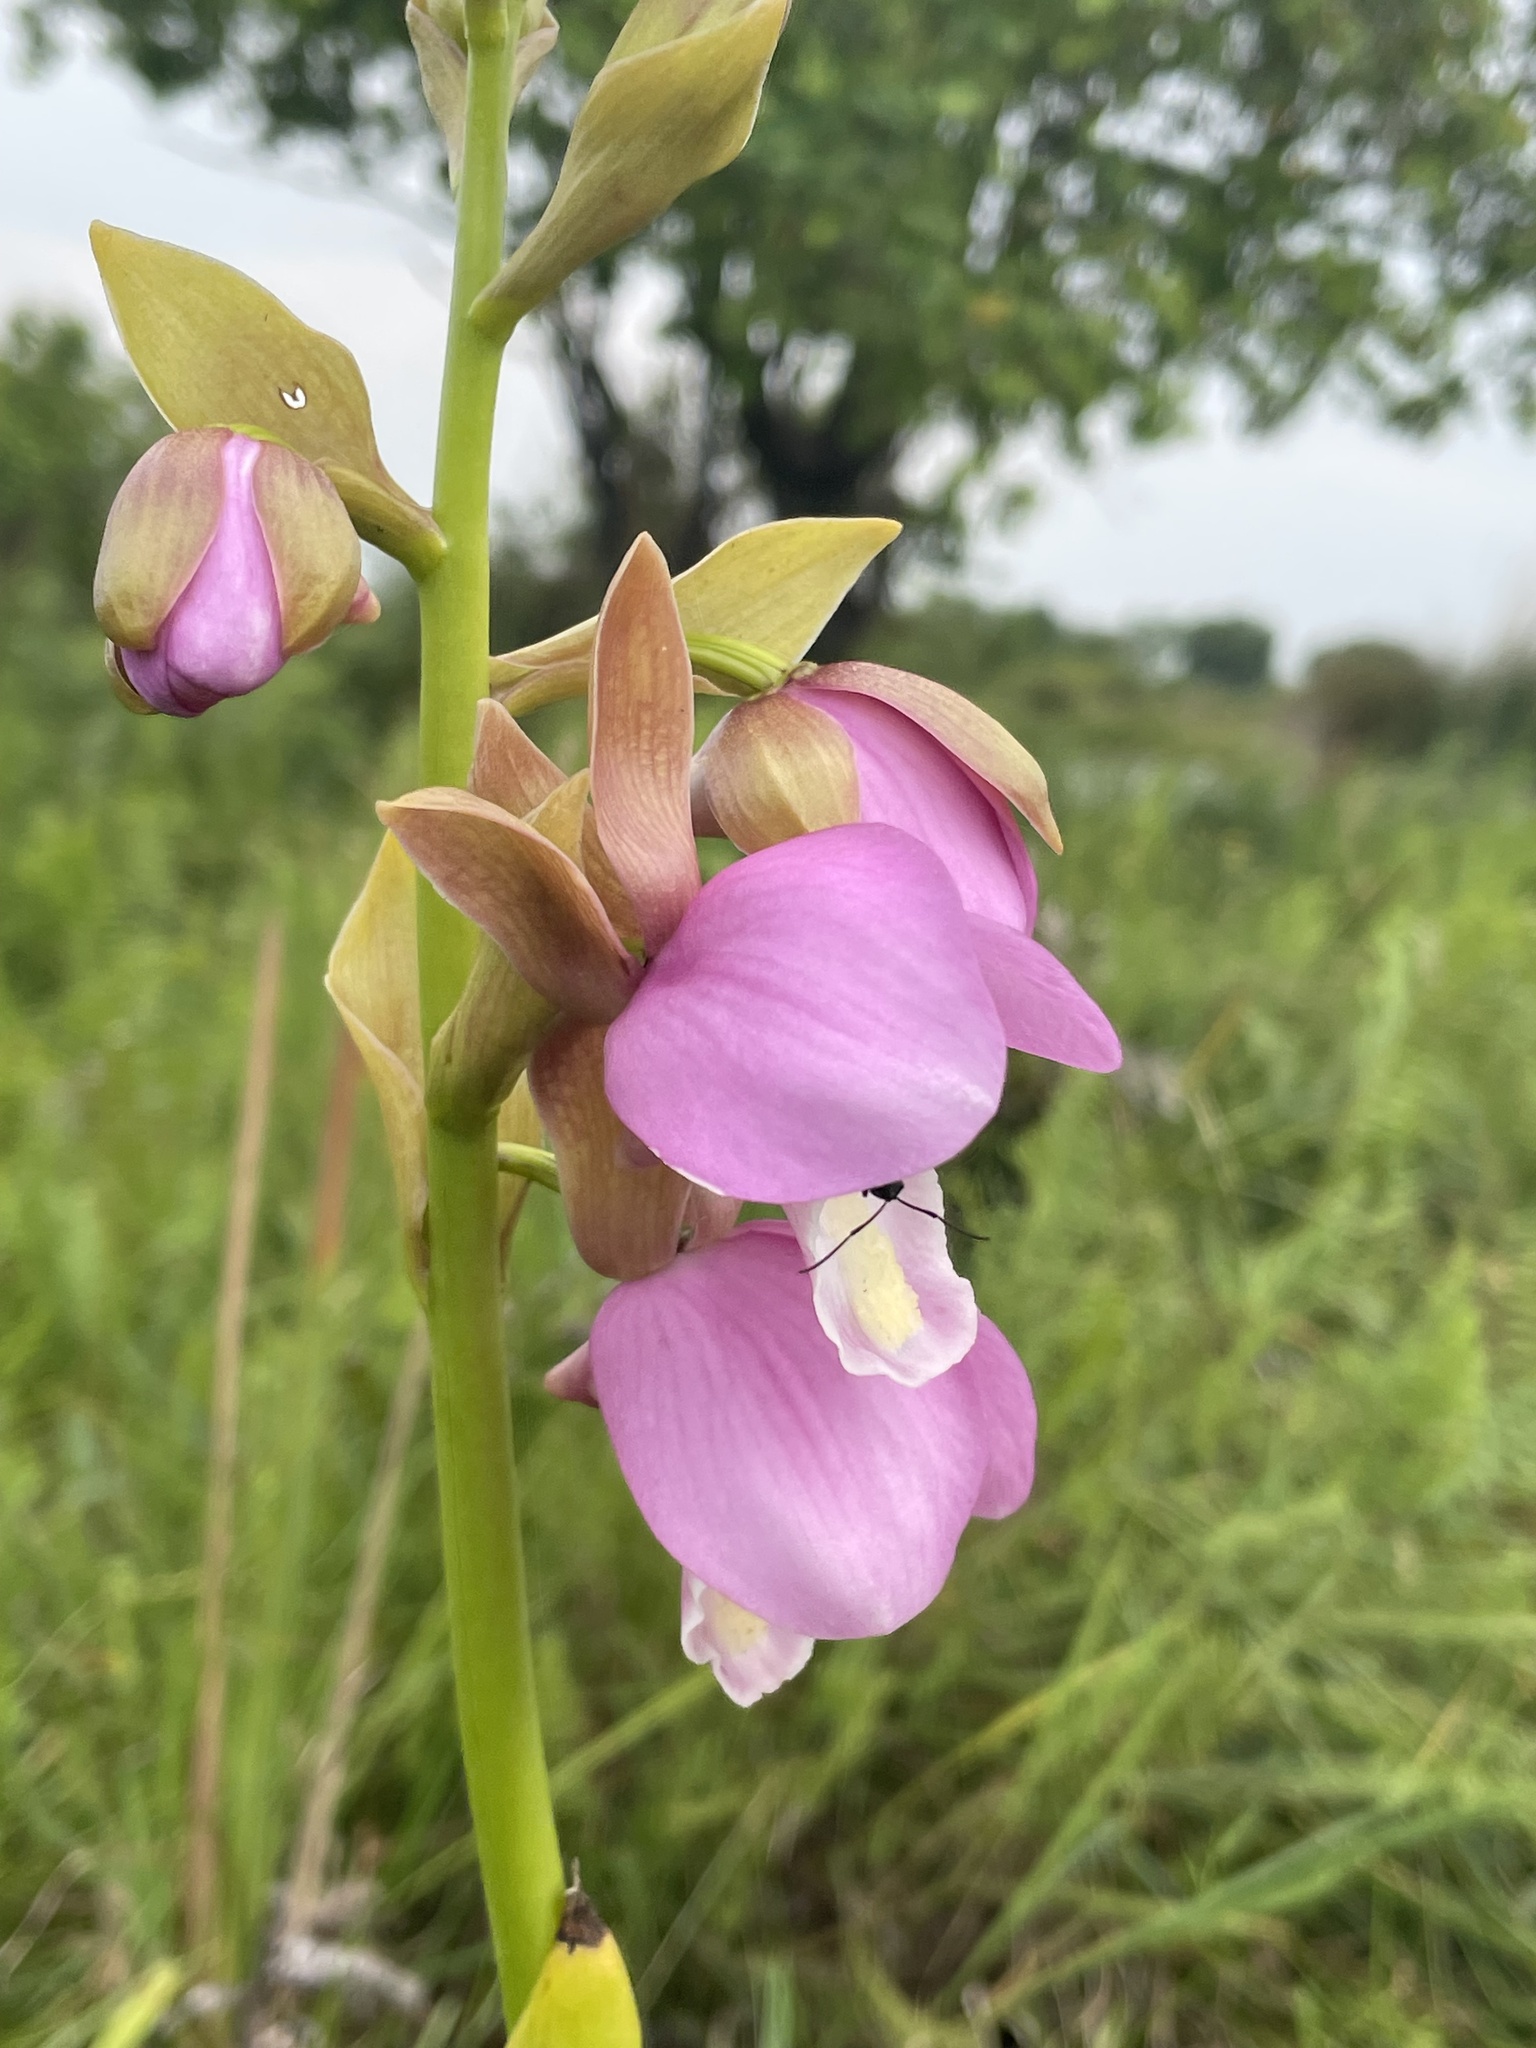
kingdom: Plantae
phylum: Tracheophyta
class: Liliopsida
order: Asparagales
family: Orchidaceae
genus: Eulophia
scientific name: Eulophia latilabris
